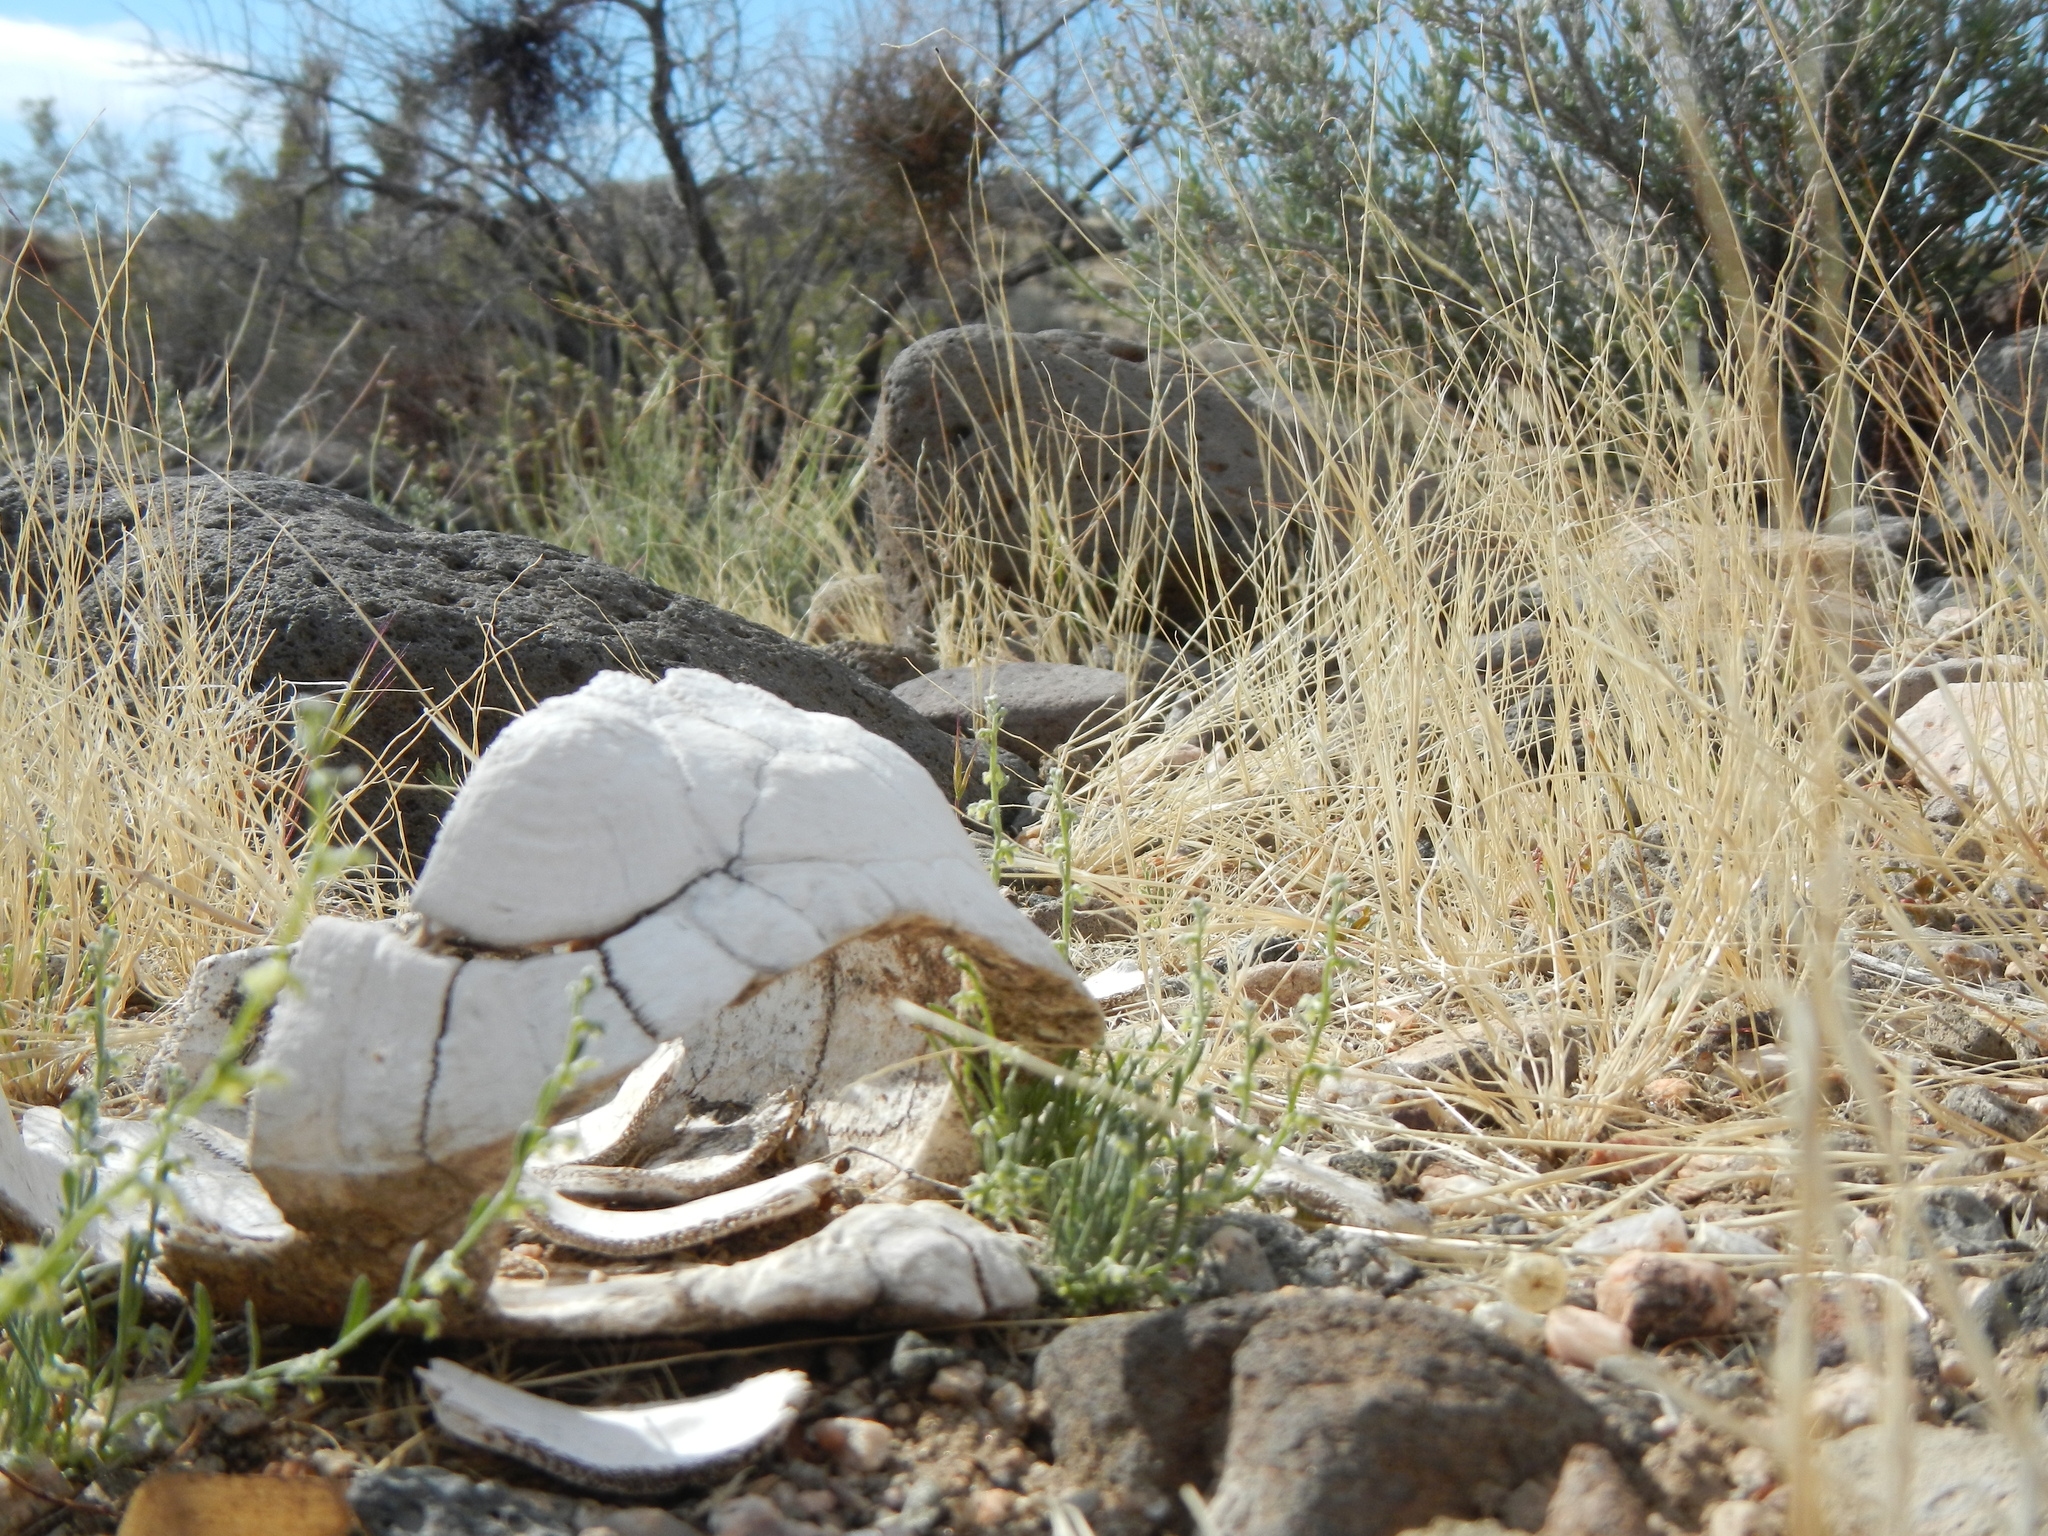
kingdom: Animalia
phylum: Chordata
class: Testudines
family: Testudinidae
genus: Gopherus
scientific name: Gopherus agassizii
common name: Mojave desert tortoise
